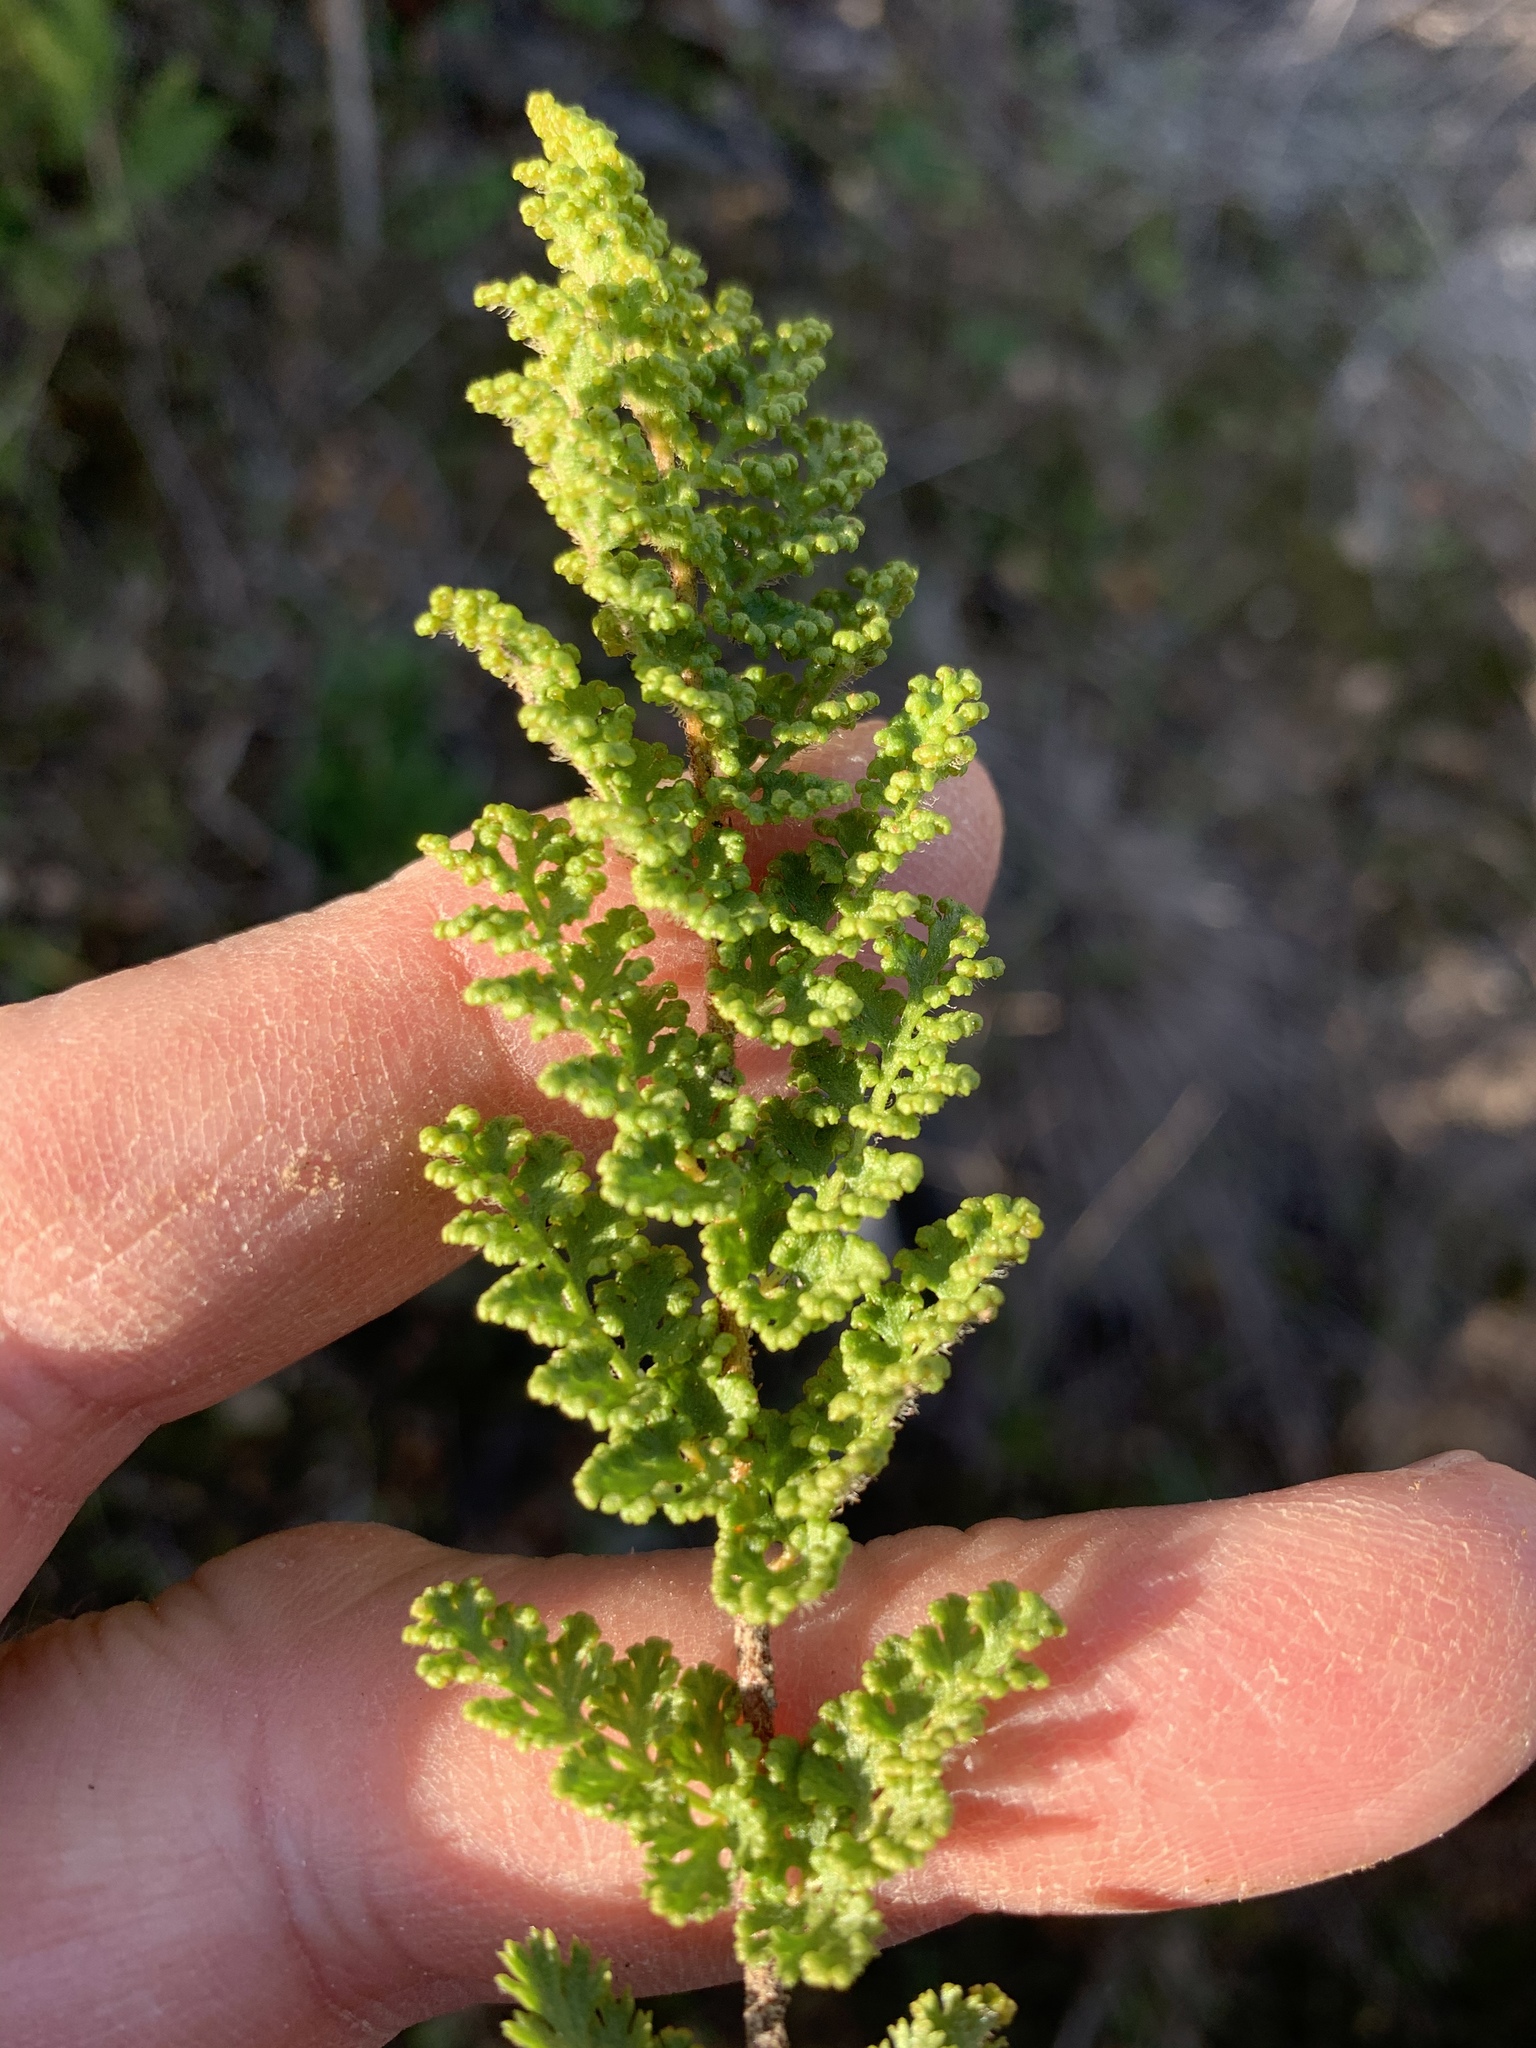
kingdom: Plantae
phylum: Tracheophyta
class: Polypodiopsida
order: Schizaeales
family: Anemiaceae
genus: Anemia
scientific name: Anemia caffrorum
